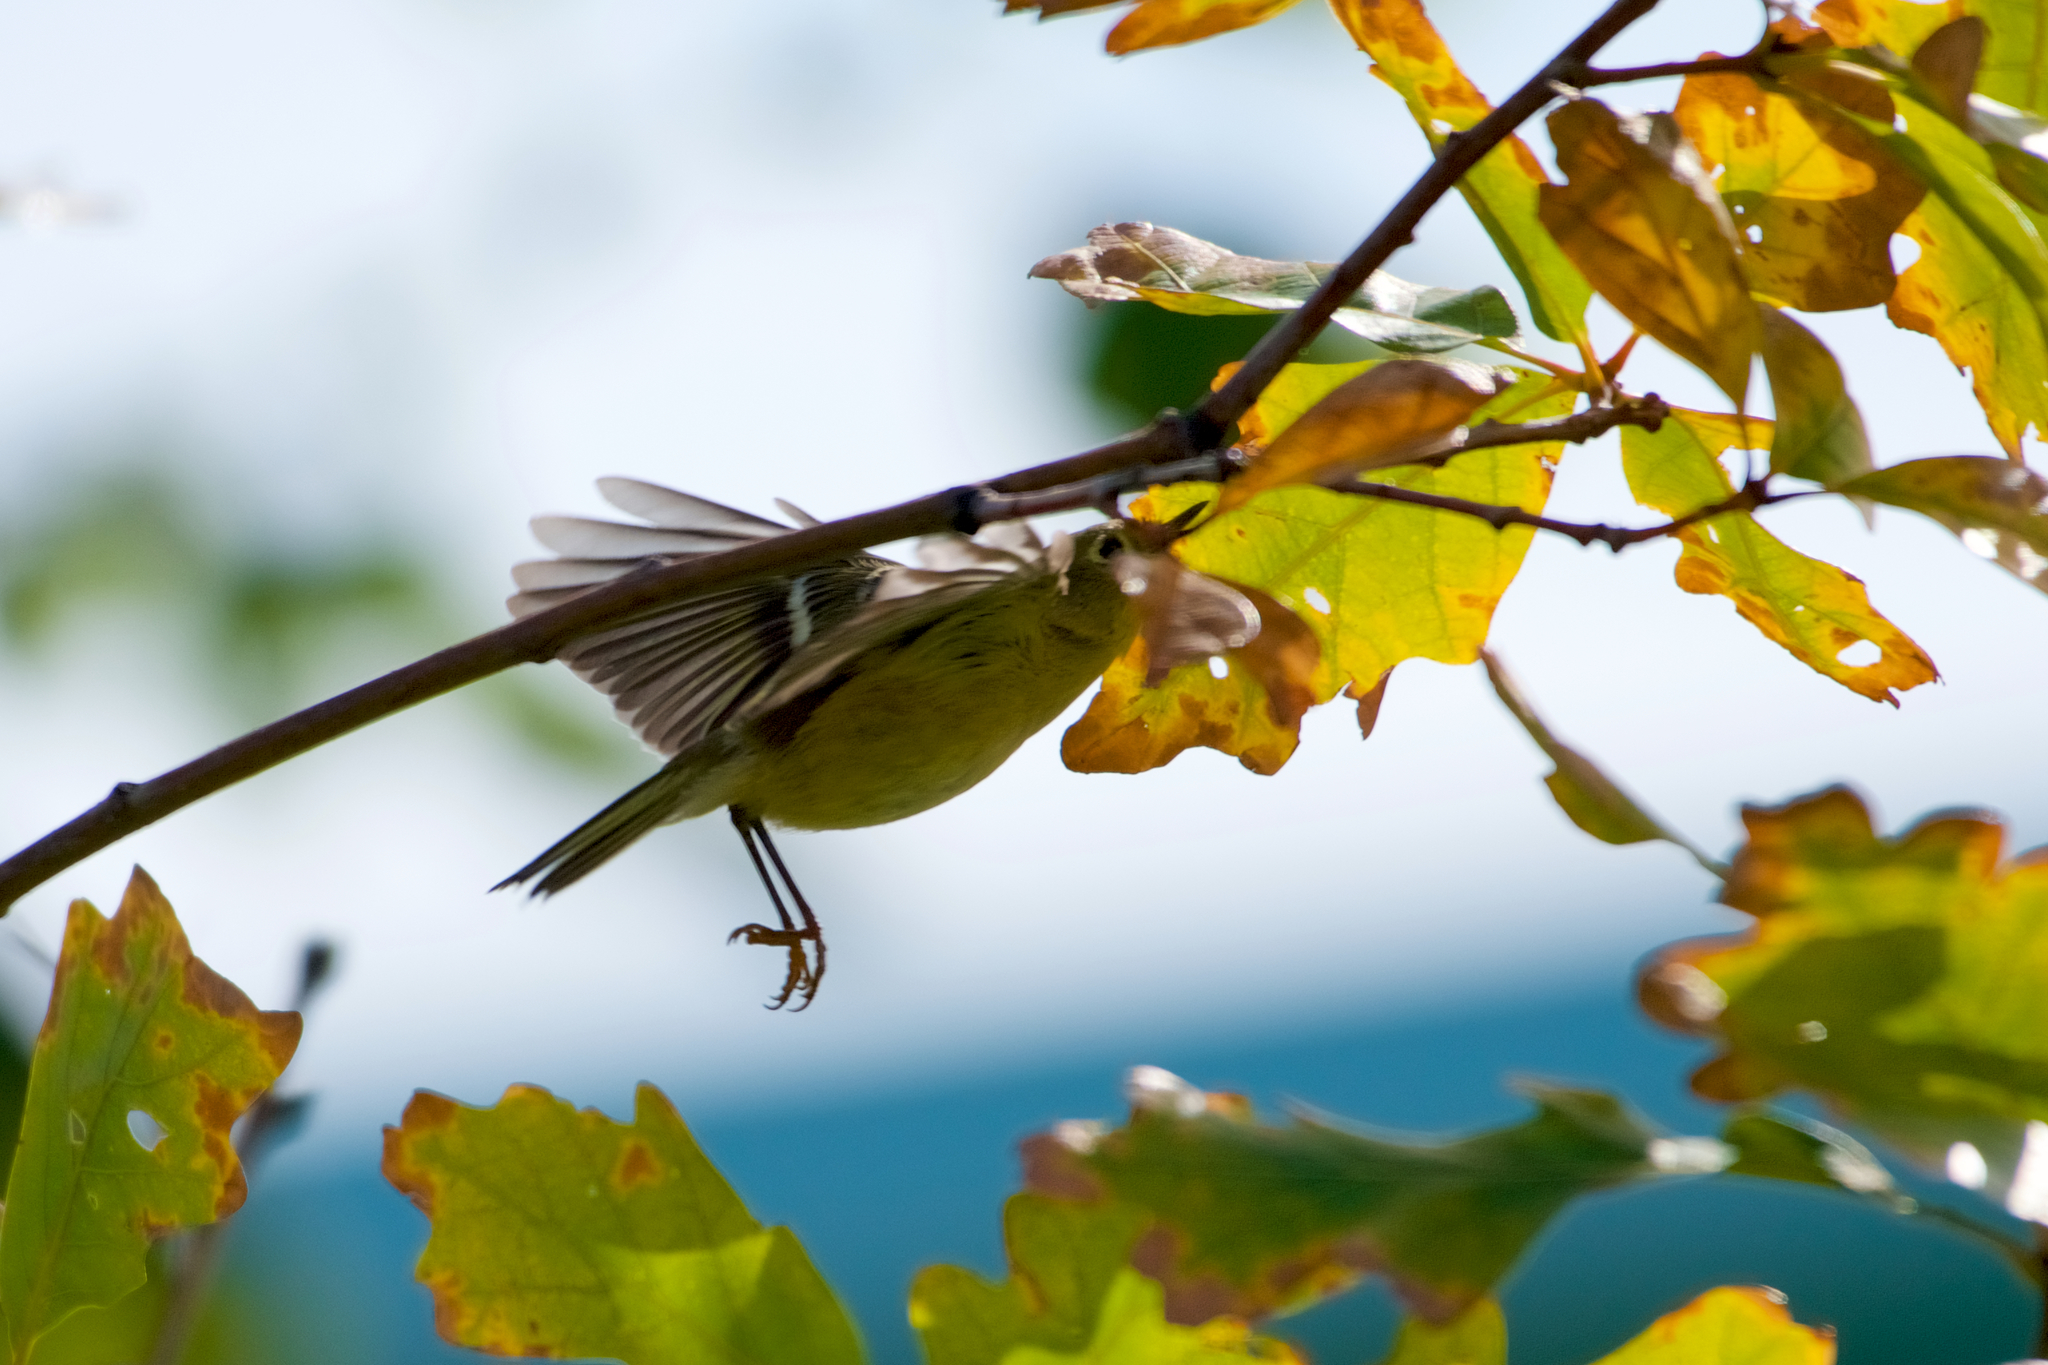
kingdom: Animalia
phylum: Chordata
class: Aves
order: Passeriformes
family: Regulidae
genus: Regulus
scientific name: Regulus calendula
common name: Ruby-crowned kinglet
